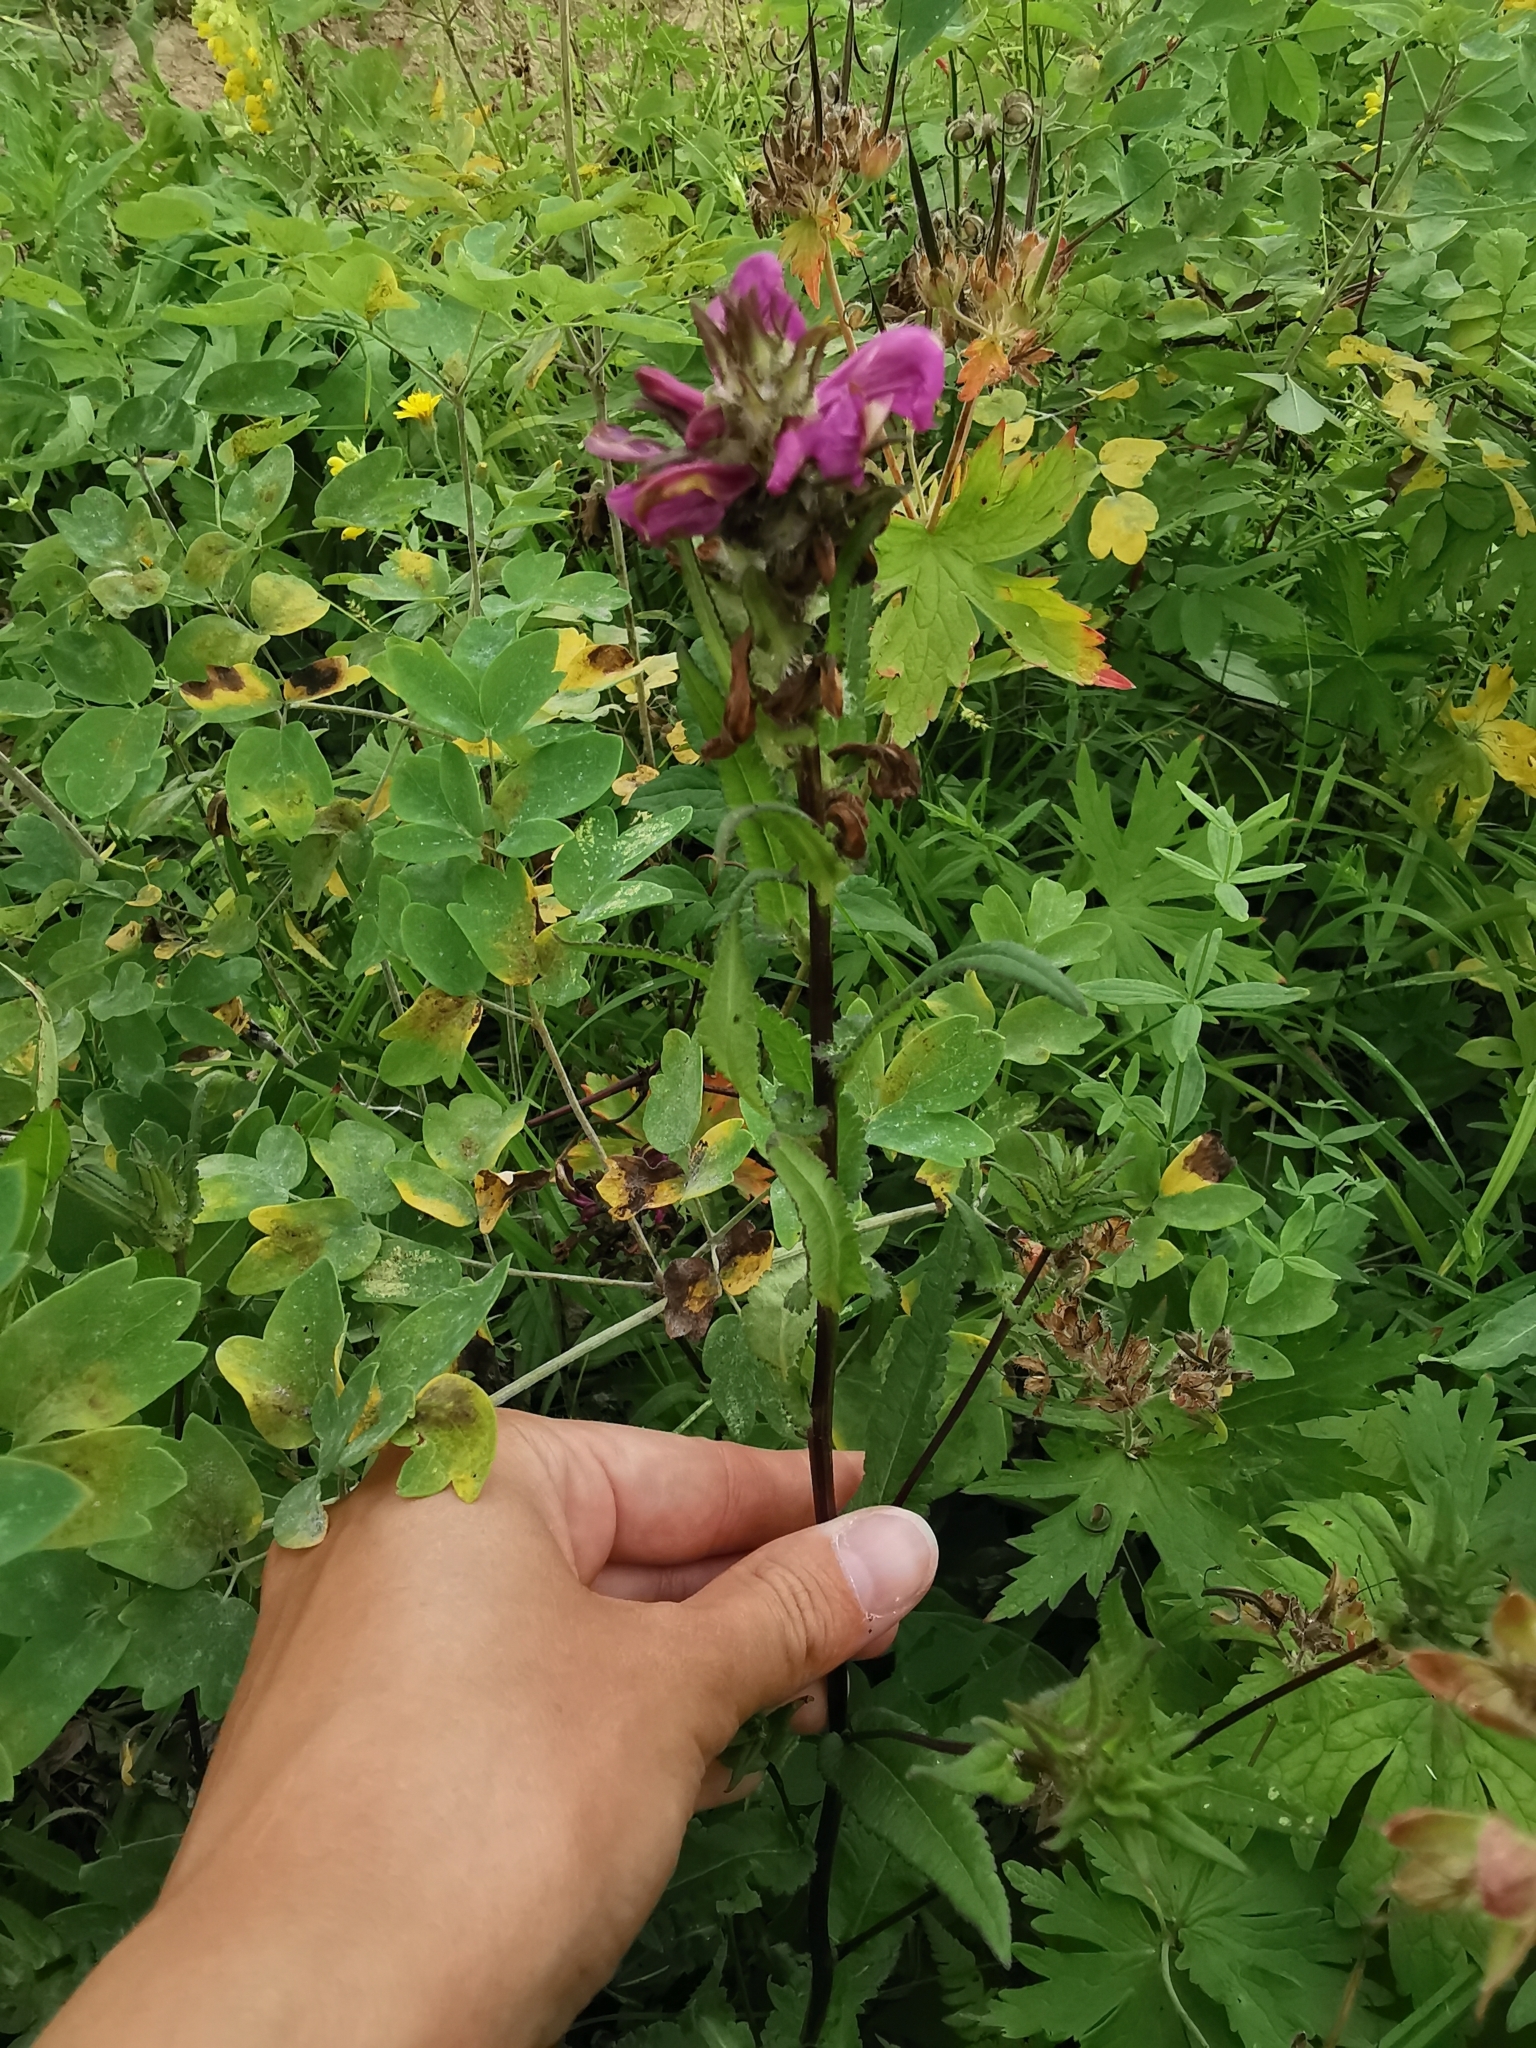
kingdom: Plantae
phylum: Tracheophyta
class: Magnoliopsida
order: Lamiales
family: Orobanchaceae
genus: Pedicularis
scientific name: Pedicularis resupinata
